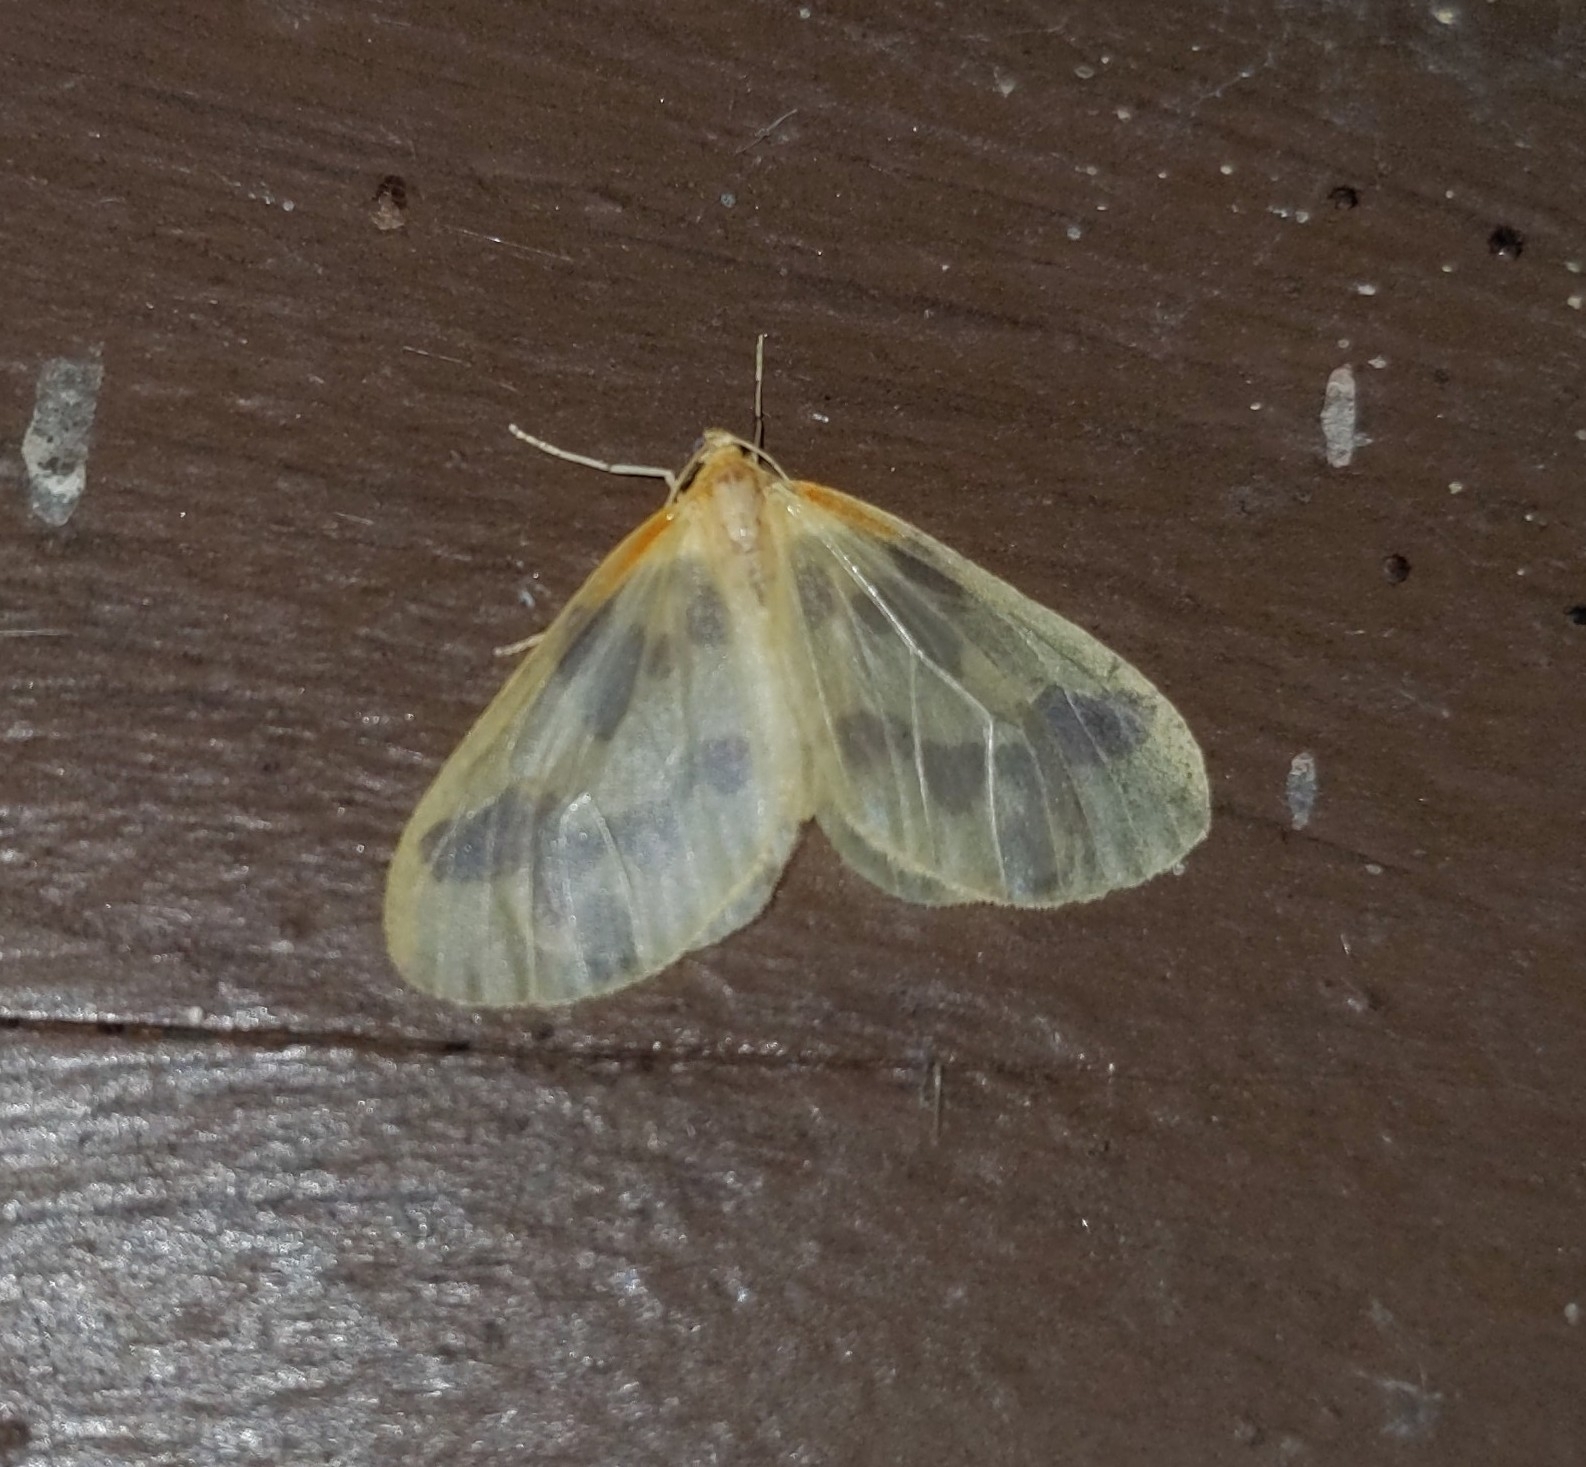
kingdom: Animalia
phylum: Arthropoda
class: Insecta
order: Lepidoptera
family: Geometridae
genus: Eubaphe
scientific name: Eubaphe mendica
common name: Beggar
